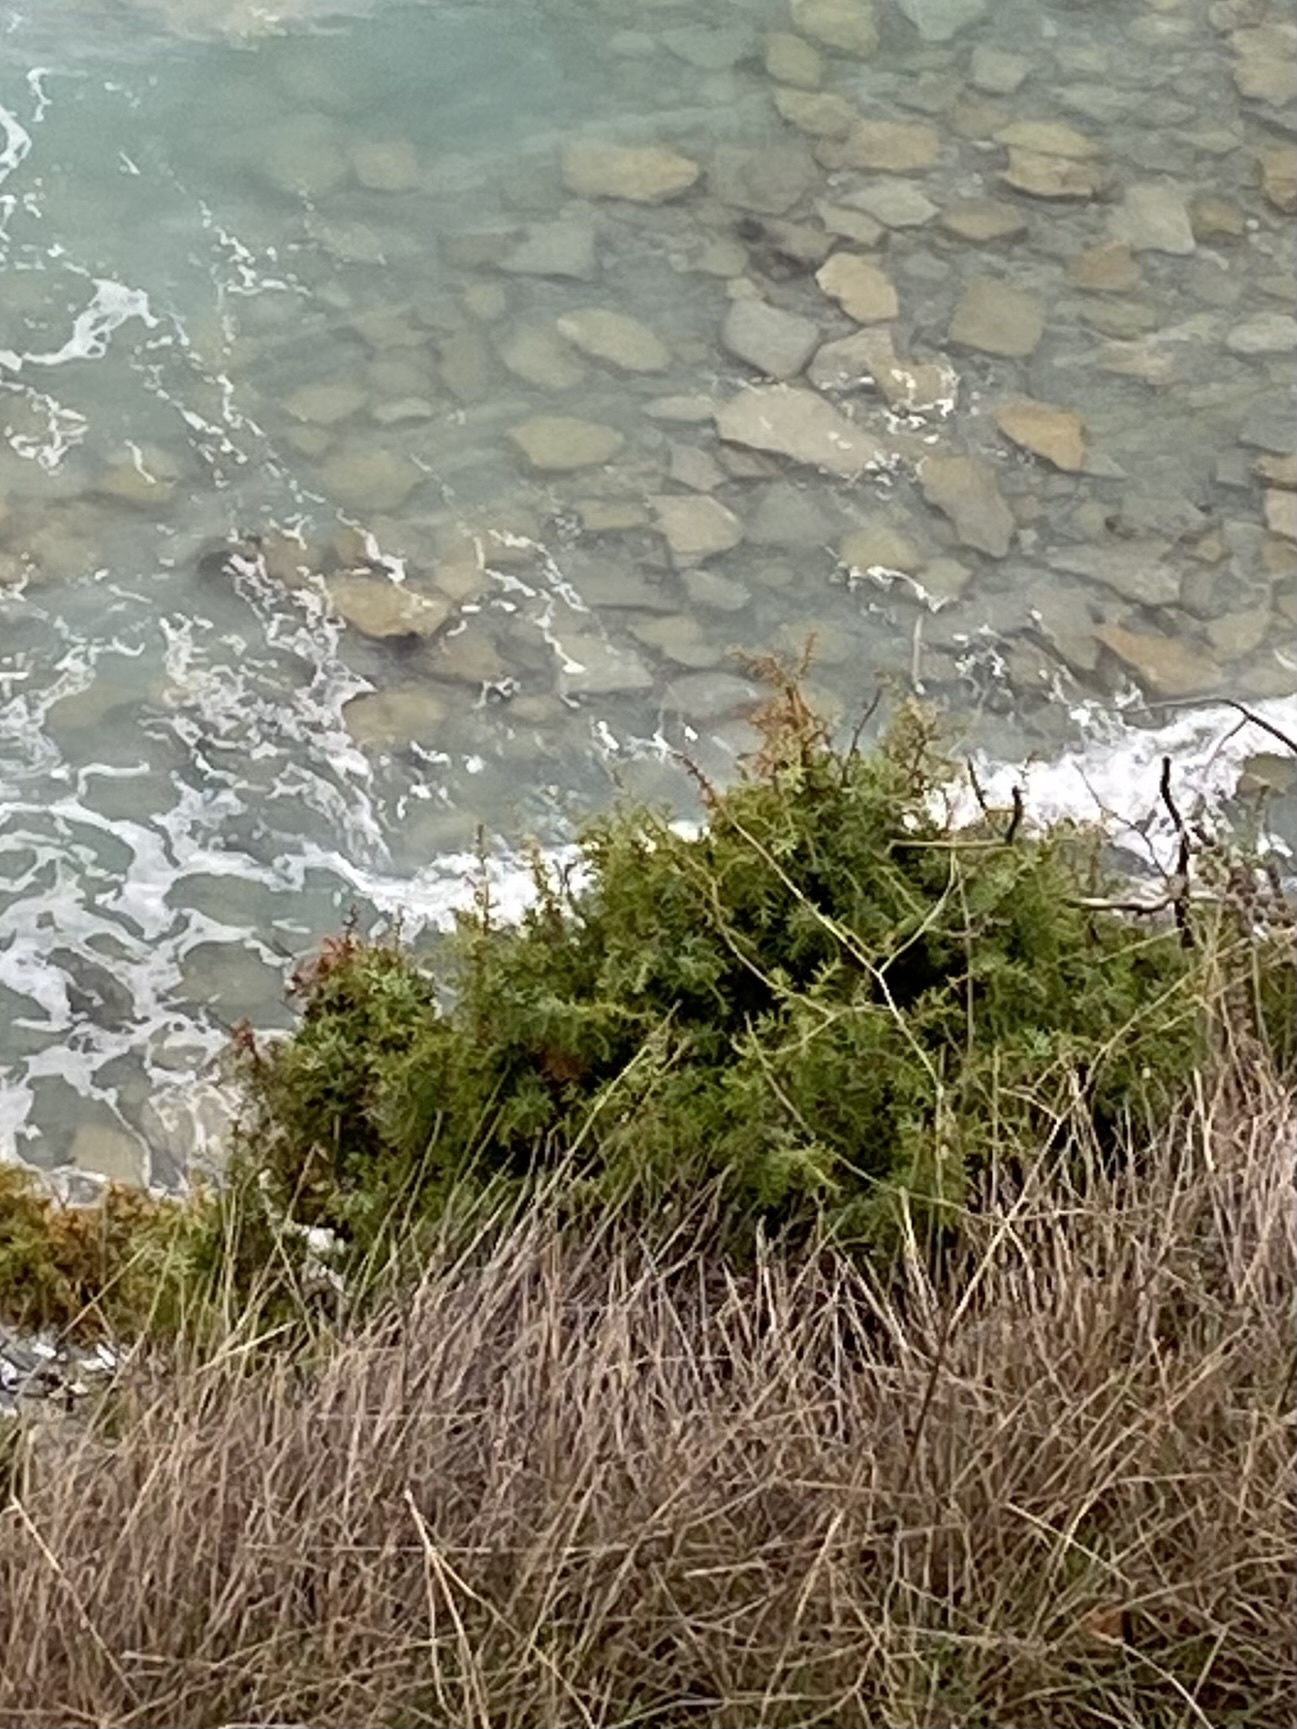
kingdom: Plantae
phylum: Tracheophyta
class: Pinopsida
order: Pinales
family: Cupressaceae
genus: Juniperus
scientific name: Juniperus oxycedrus
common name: Prickly juniper
